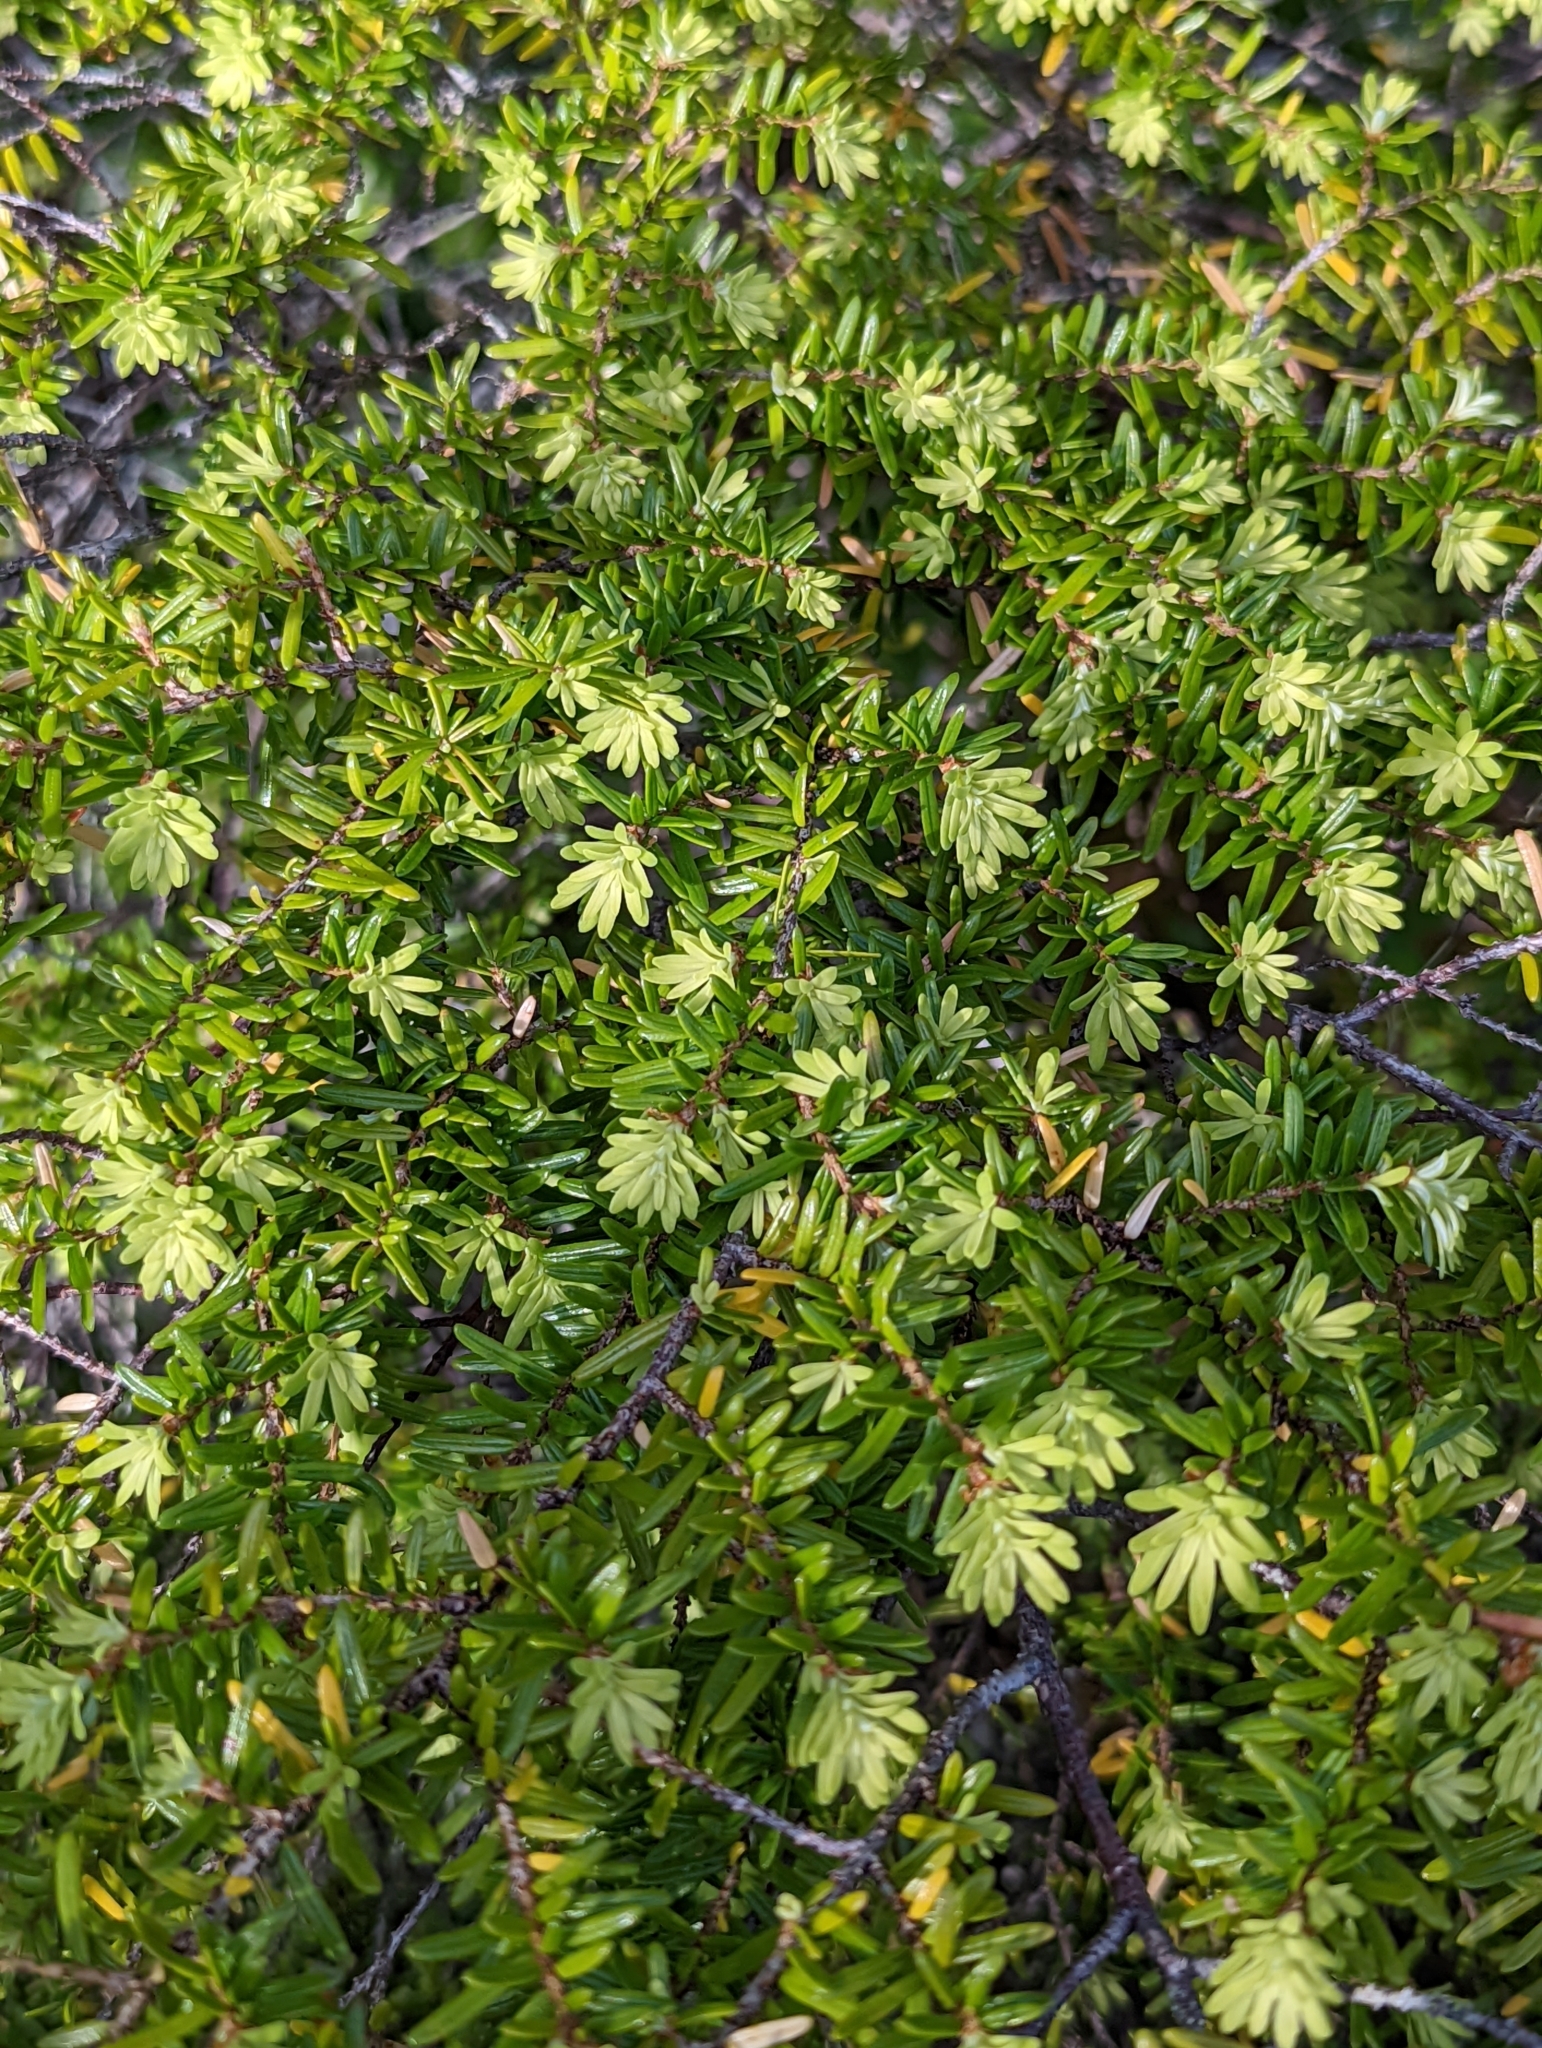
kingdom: Plantae
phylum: Tracheophyta
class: Pinopsida
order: Pinales
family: Pinaceae
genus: Tsuga
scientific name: Tsuga heterophylla
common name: Western hemlock
